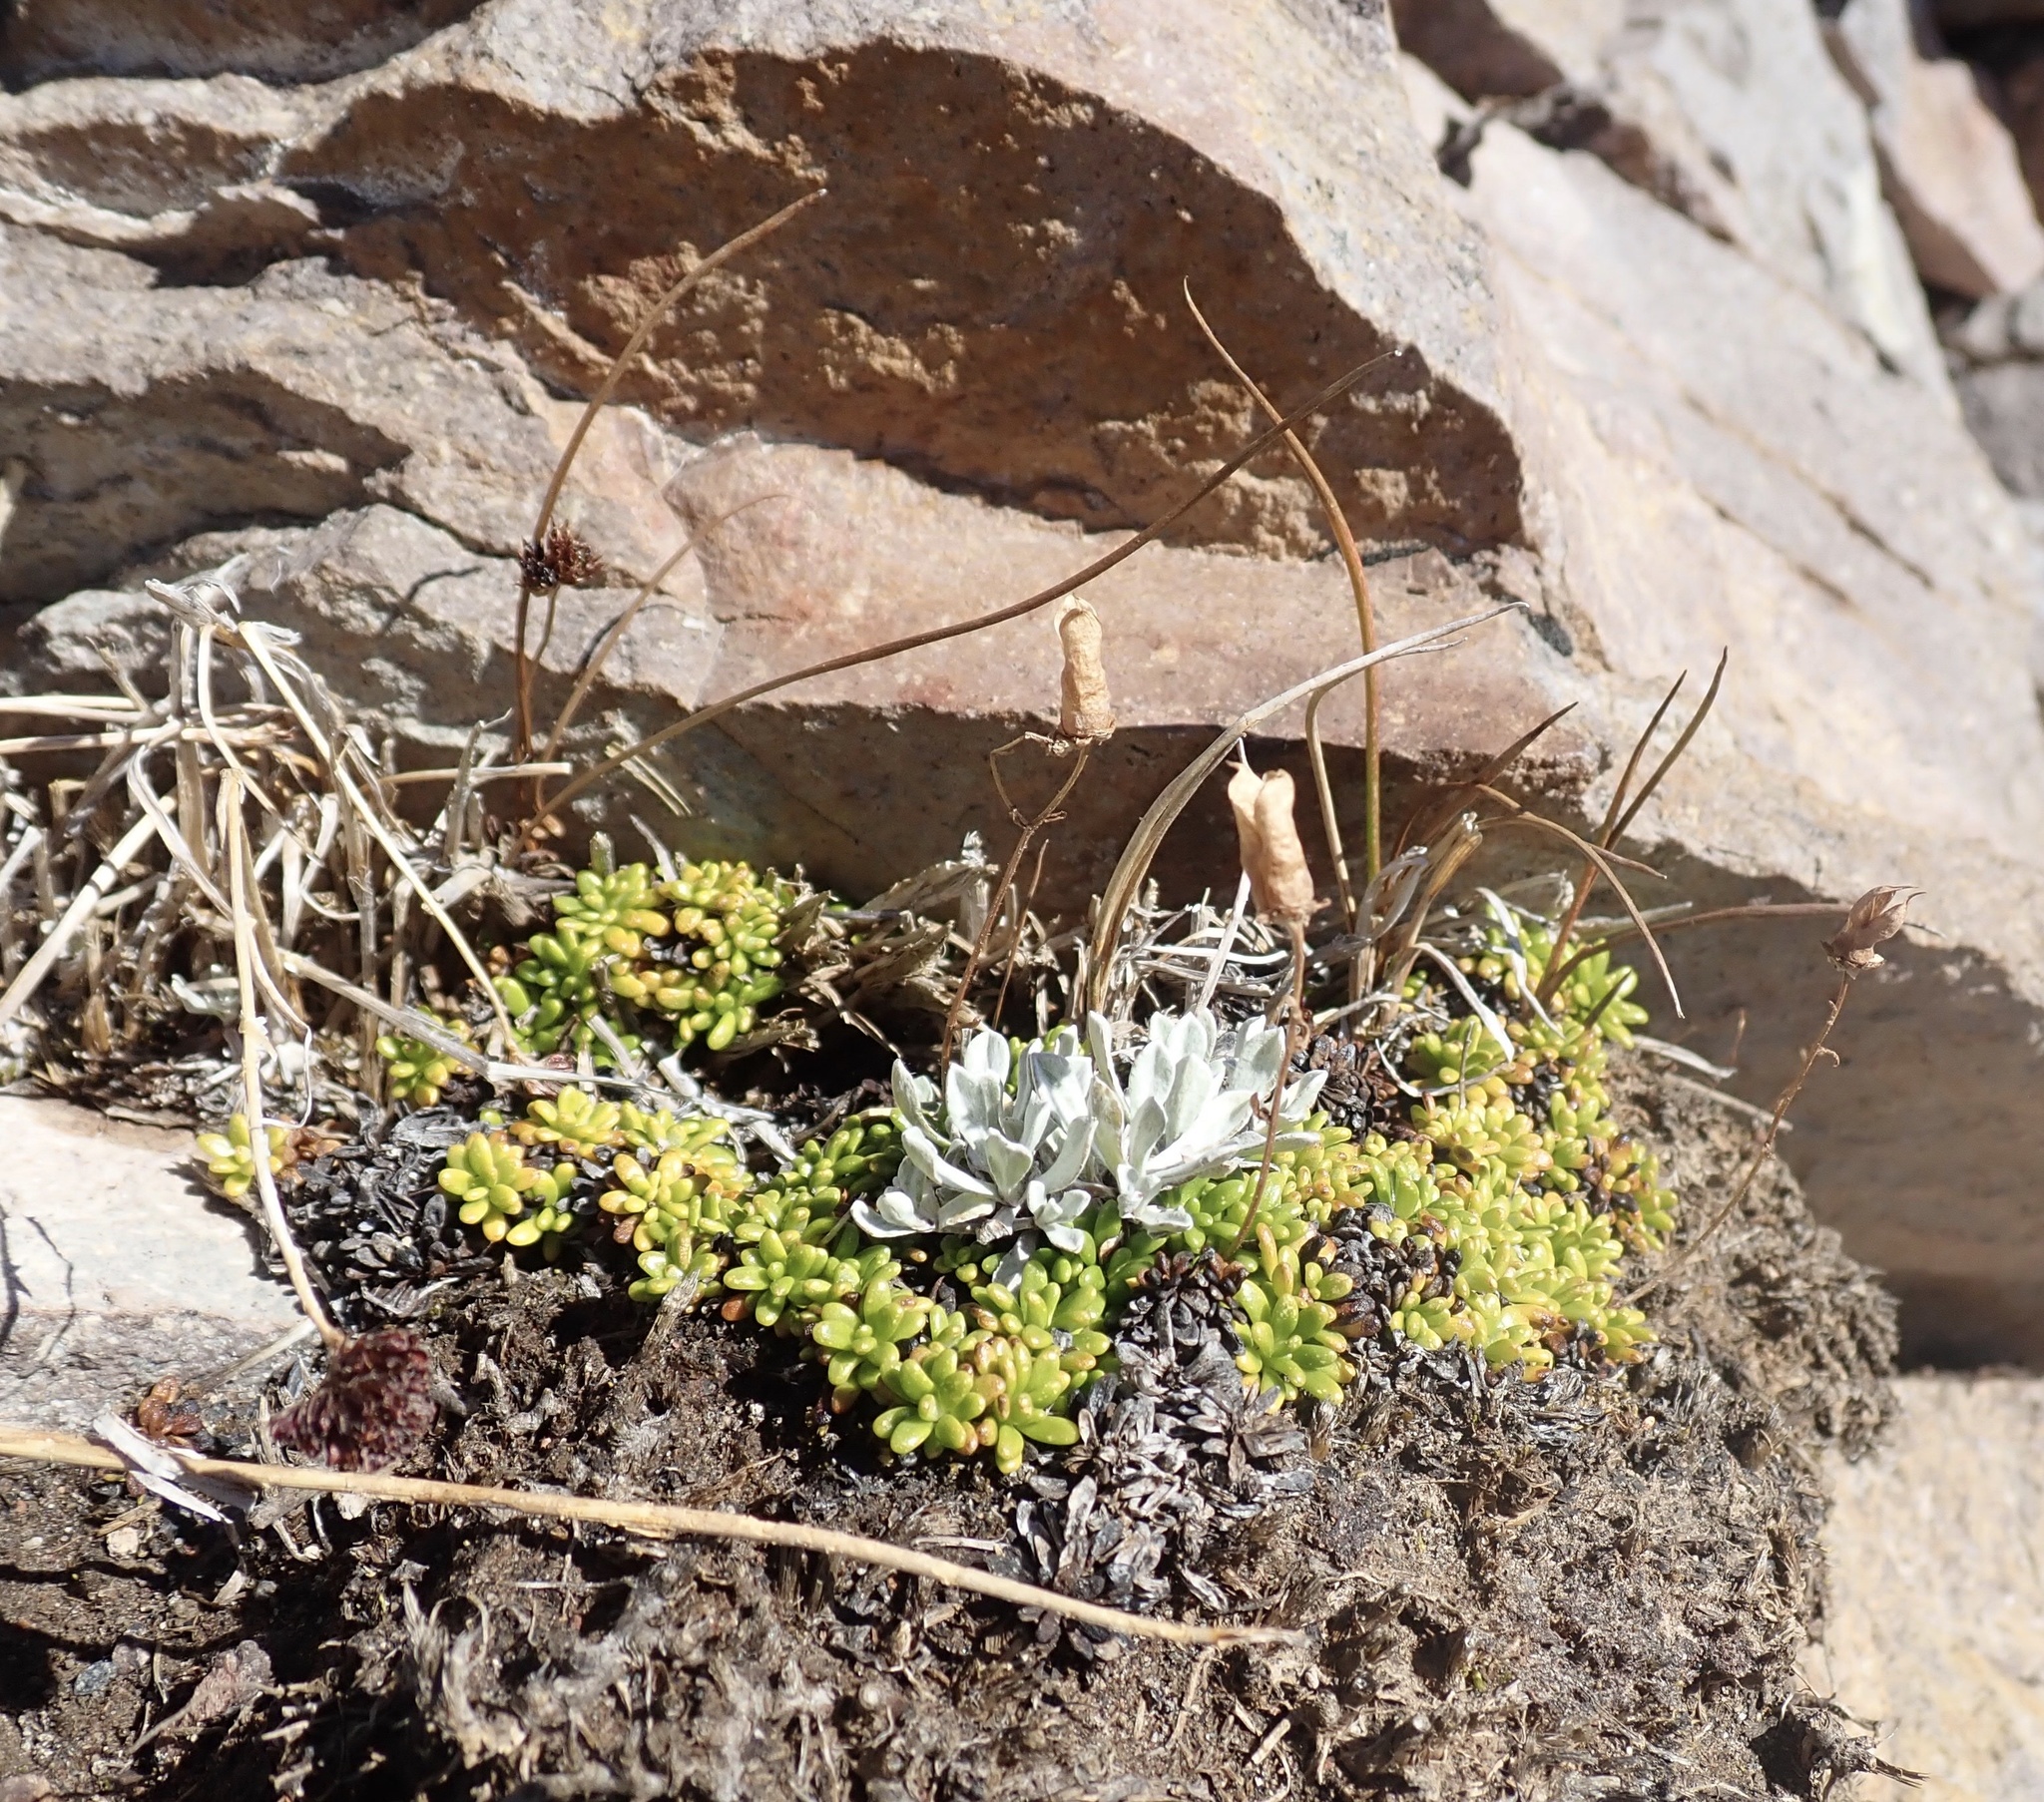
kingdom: Plantae
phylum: Tracheophyta
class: Magnoliopsida
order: Saxifragales
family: Saxifragaceae
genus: Micranthes
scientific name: Micranthes tolmiei
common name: Tolmie's saxifrage
